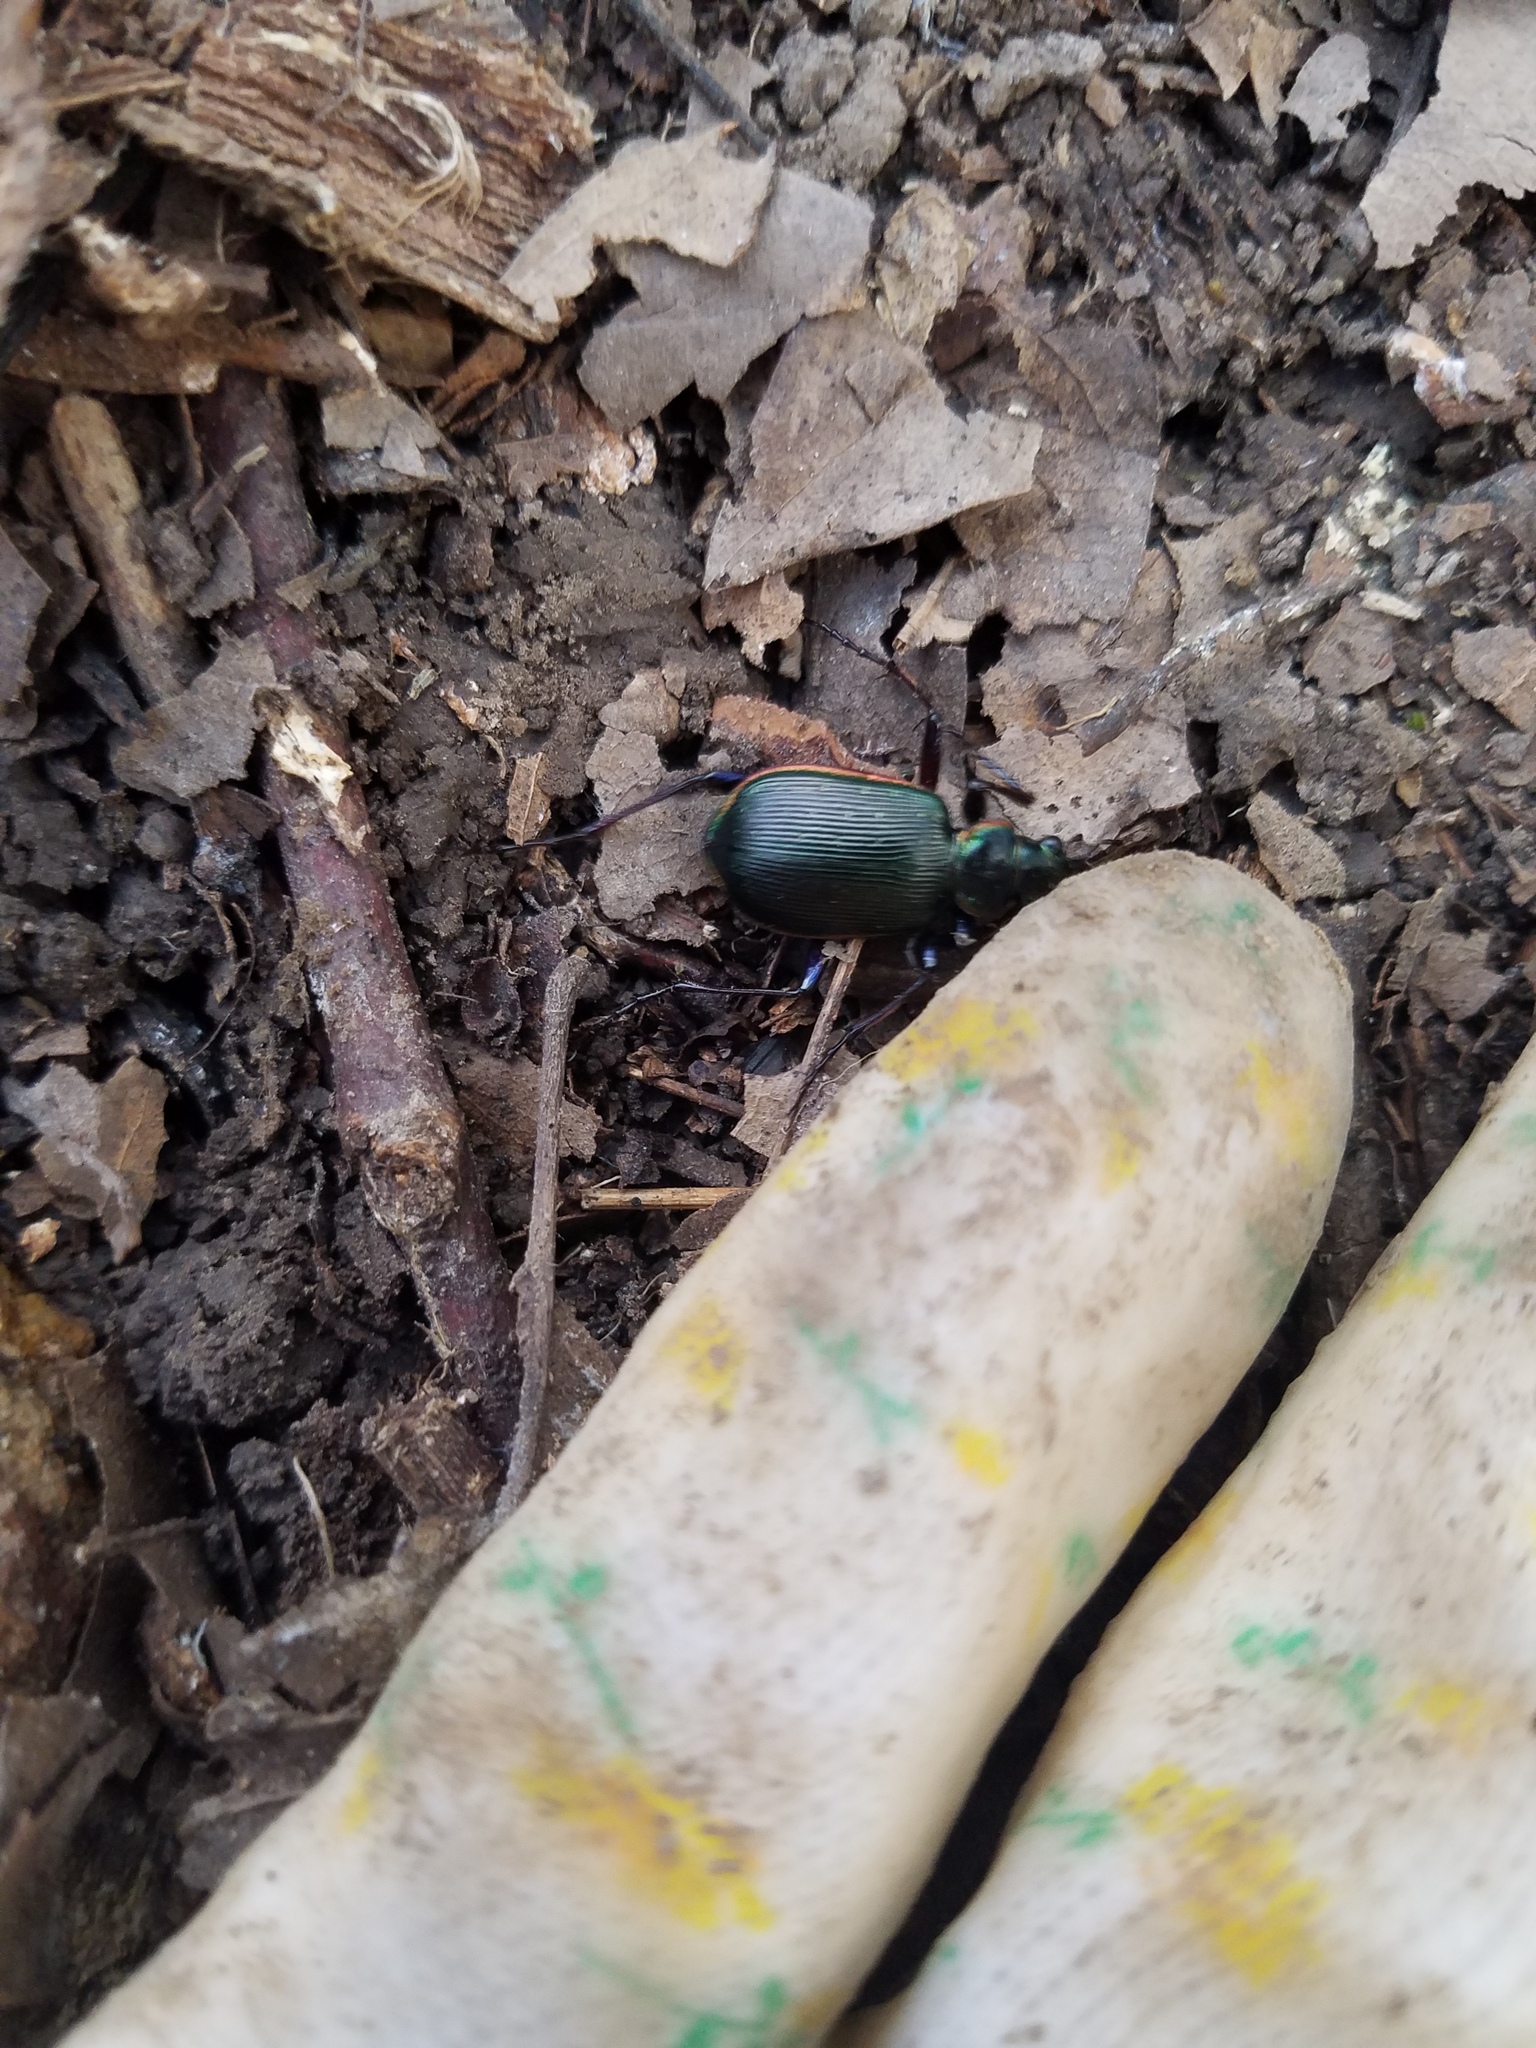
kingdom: Animalia
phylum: Arthropoda
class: Insecta
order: Coleoptera
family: Carabidae
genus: Calosoma
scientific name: Calosoma scrutator
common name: Fiery searcher beetle
